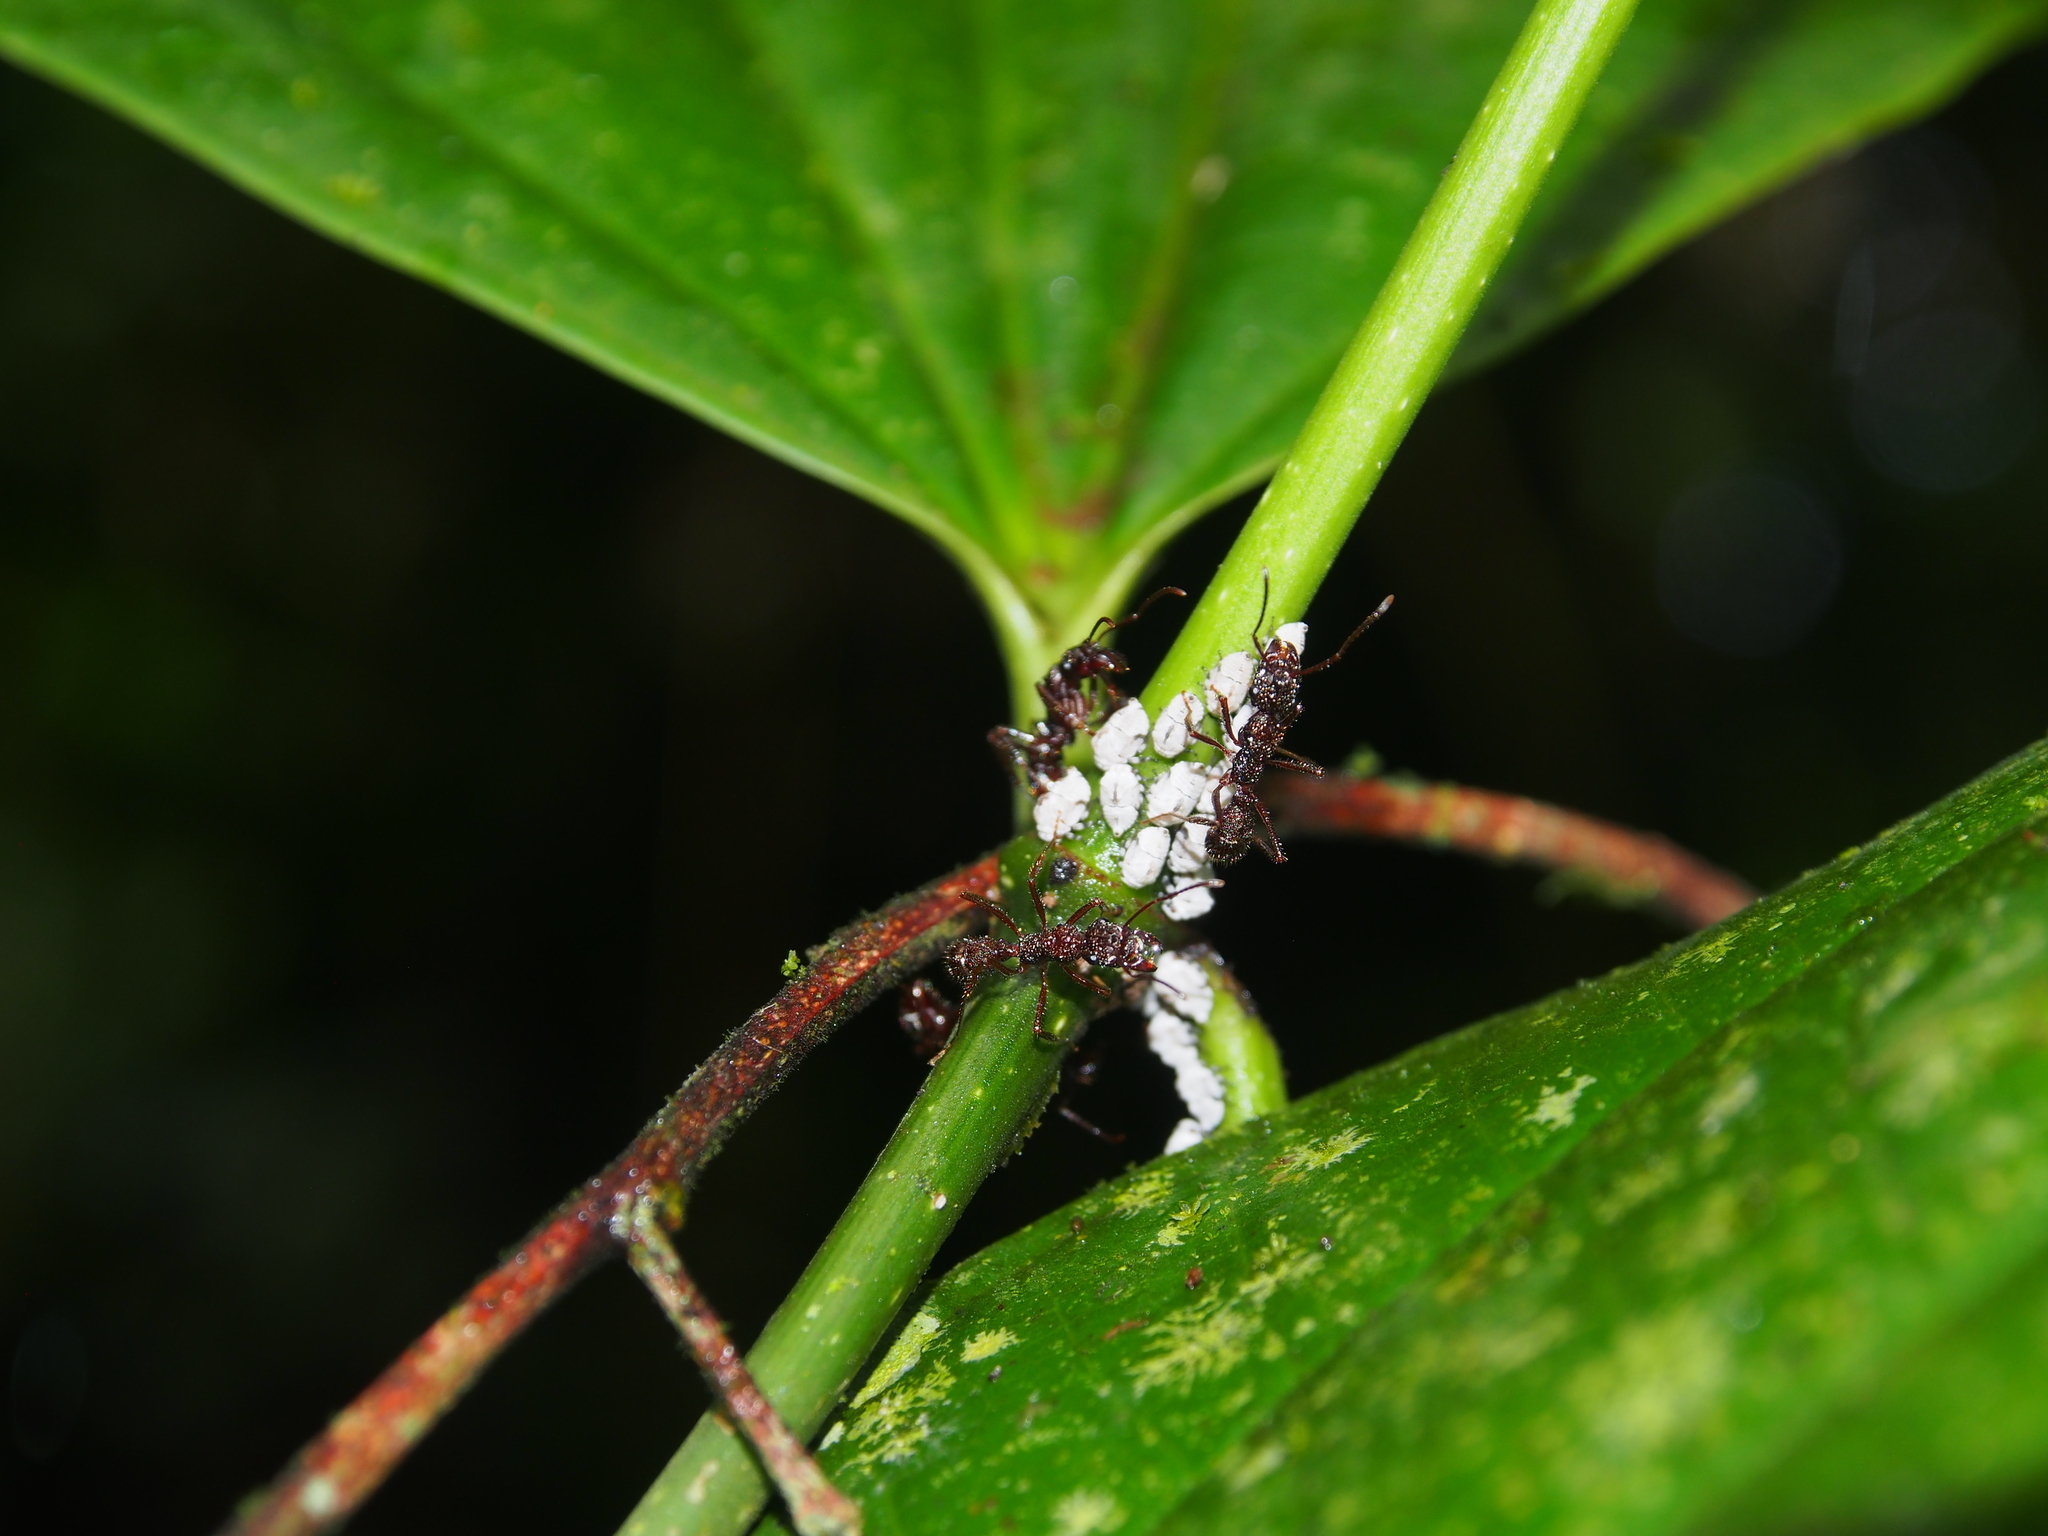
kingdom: Animalia
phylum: Arthropoda
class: Insecta
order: Hymenoptera
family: Formicidae
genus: Ectatomma
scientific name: Ectatomma ruidum
